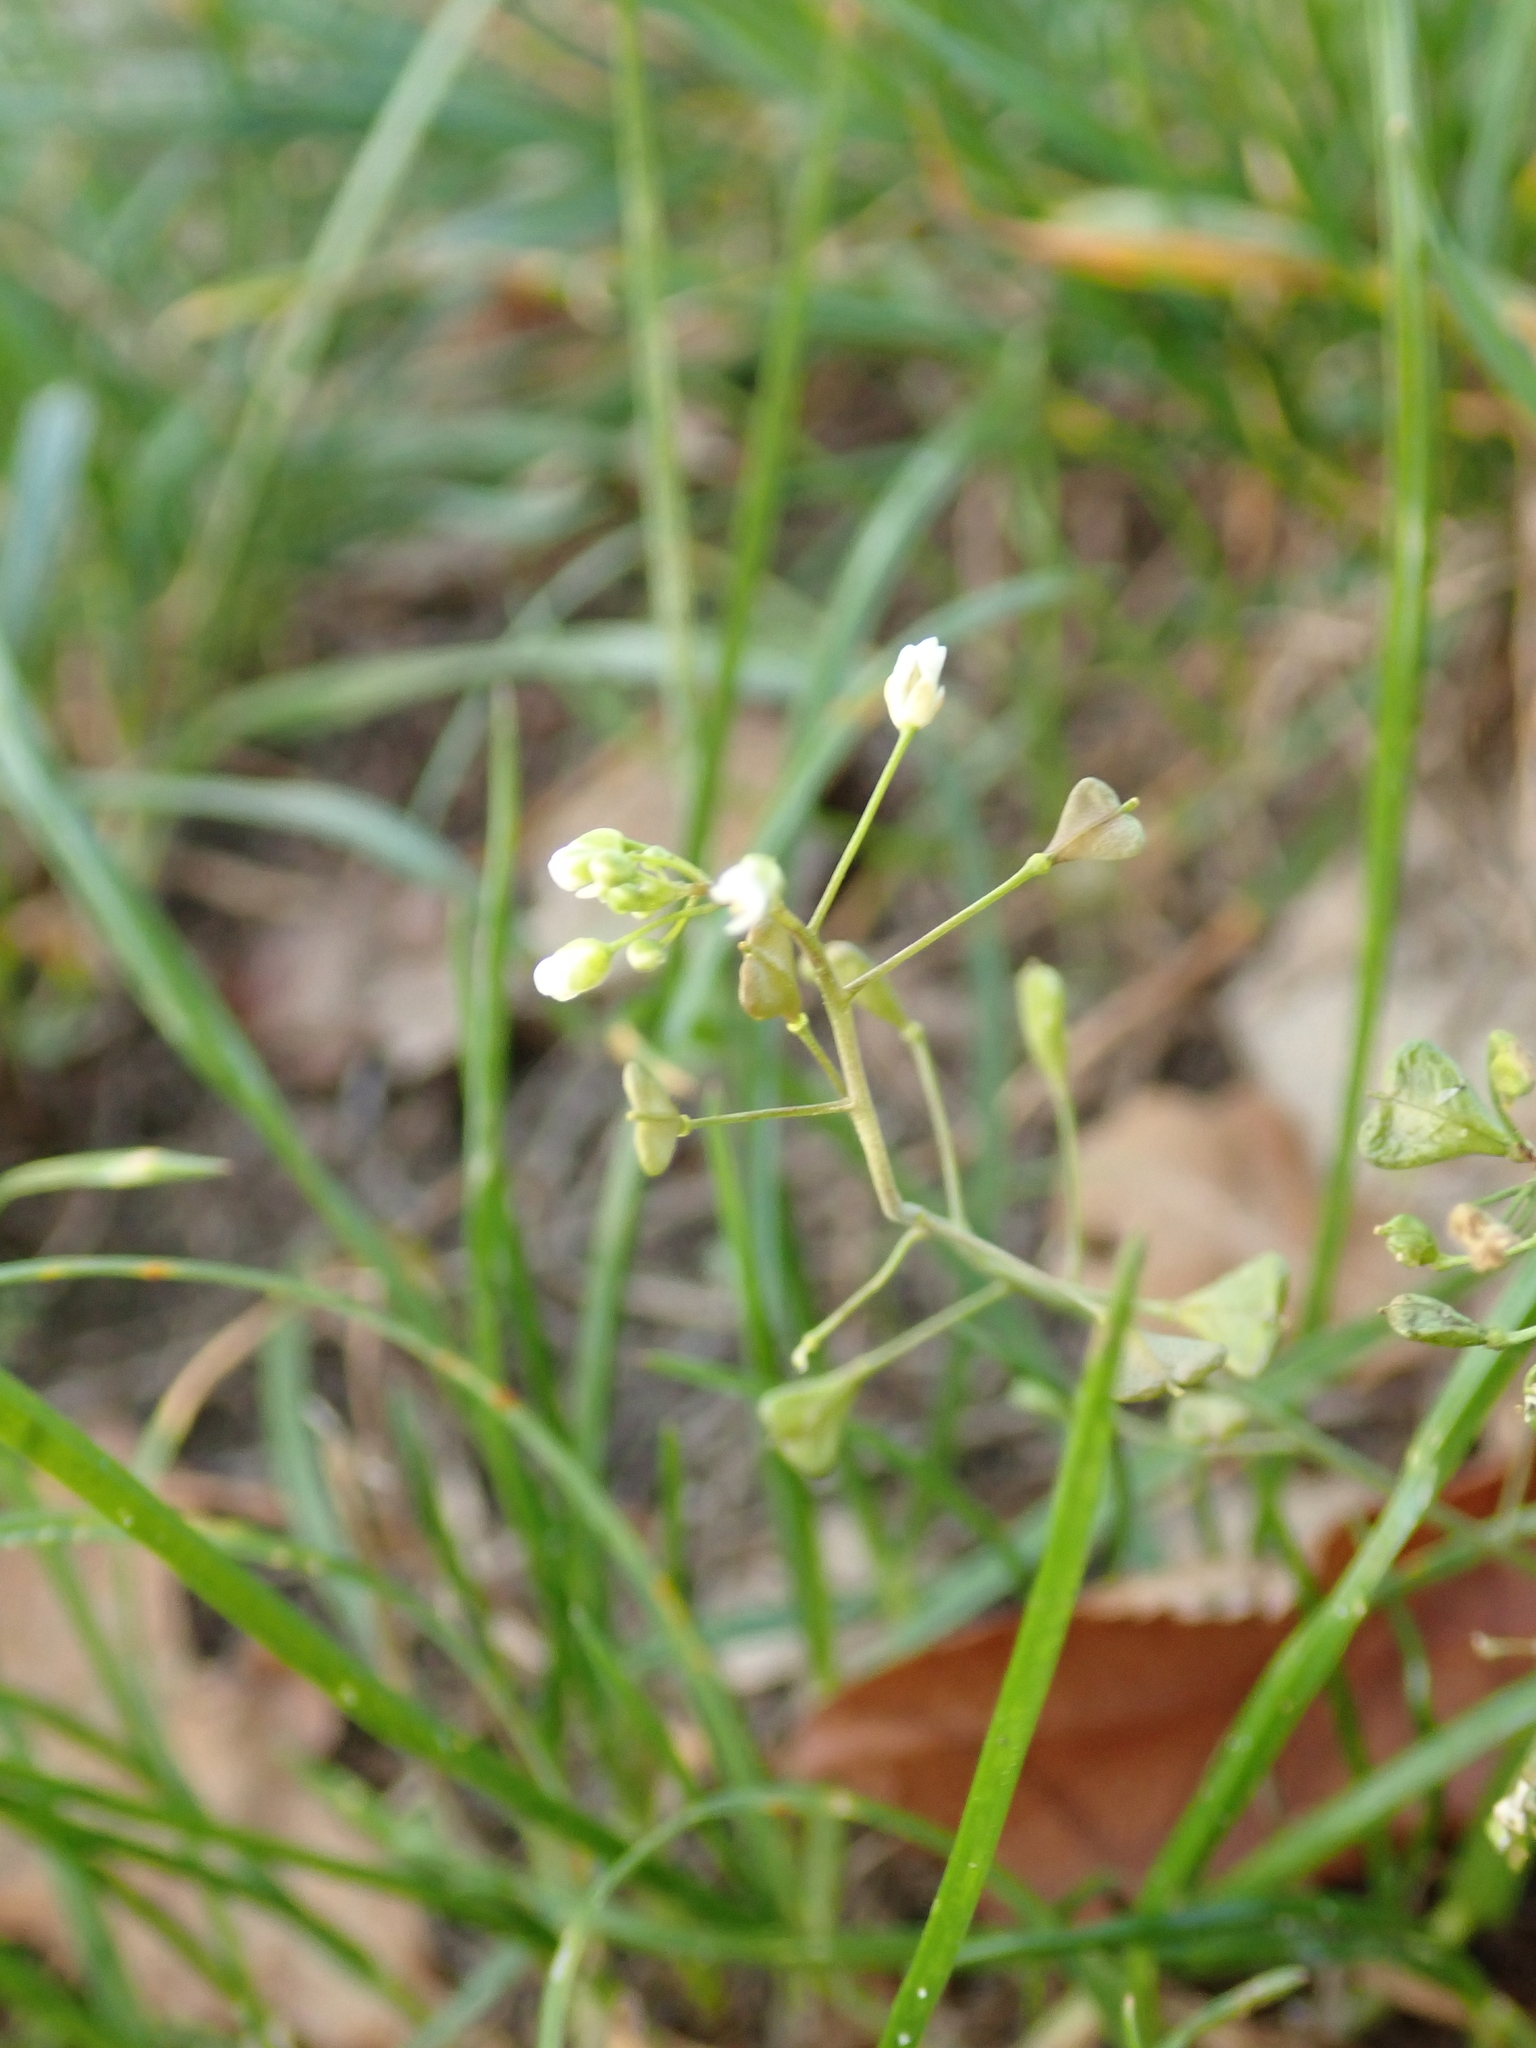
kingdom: Plantae
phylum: Tracheophyta
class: Magnoliopsida
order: Brassicales
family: Brassicaceae
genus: Capsella
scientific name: Capsella bursa-pastoris
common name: Shepherd's purse
